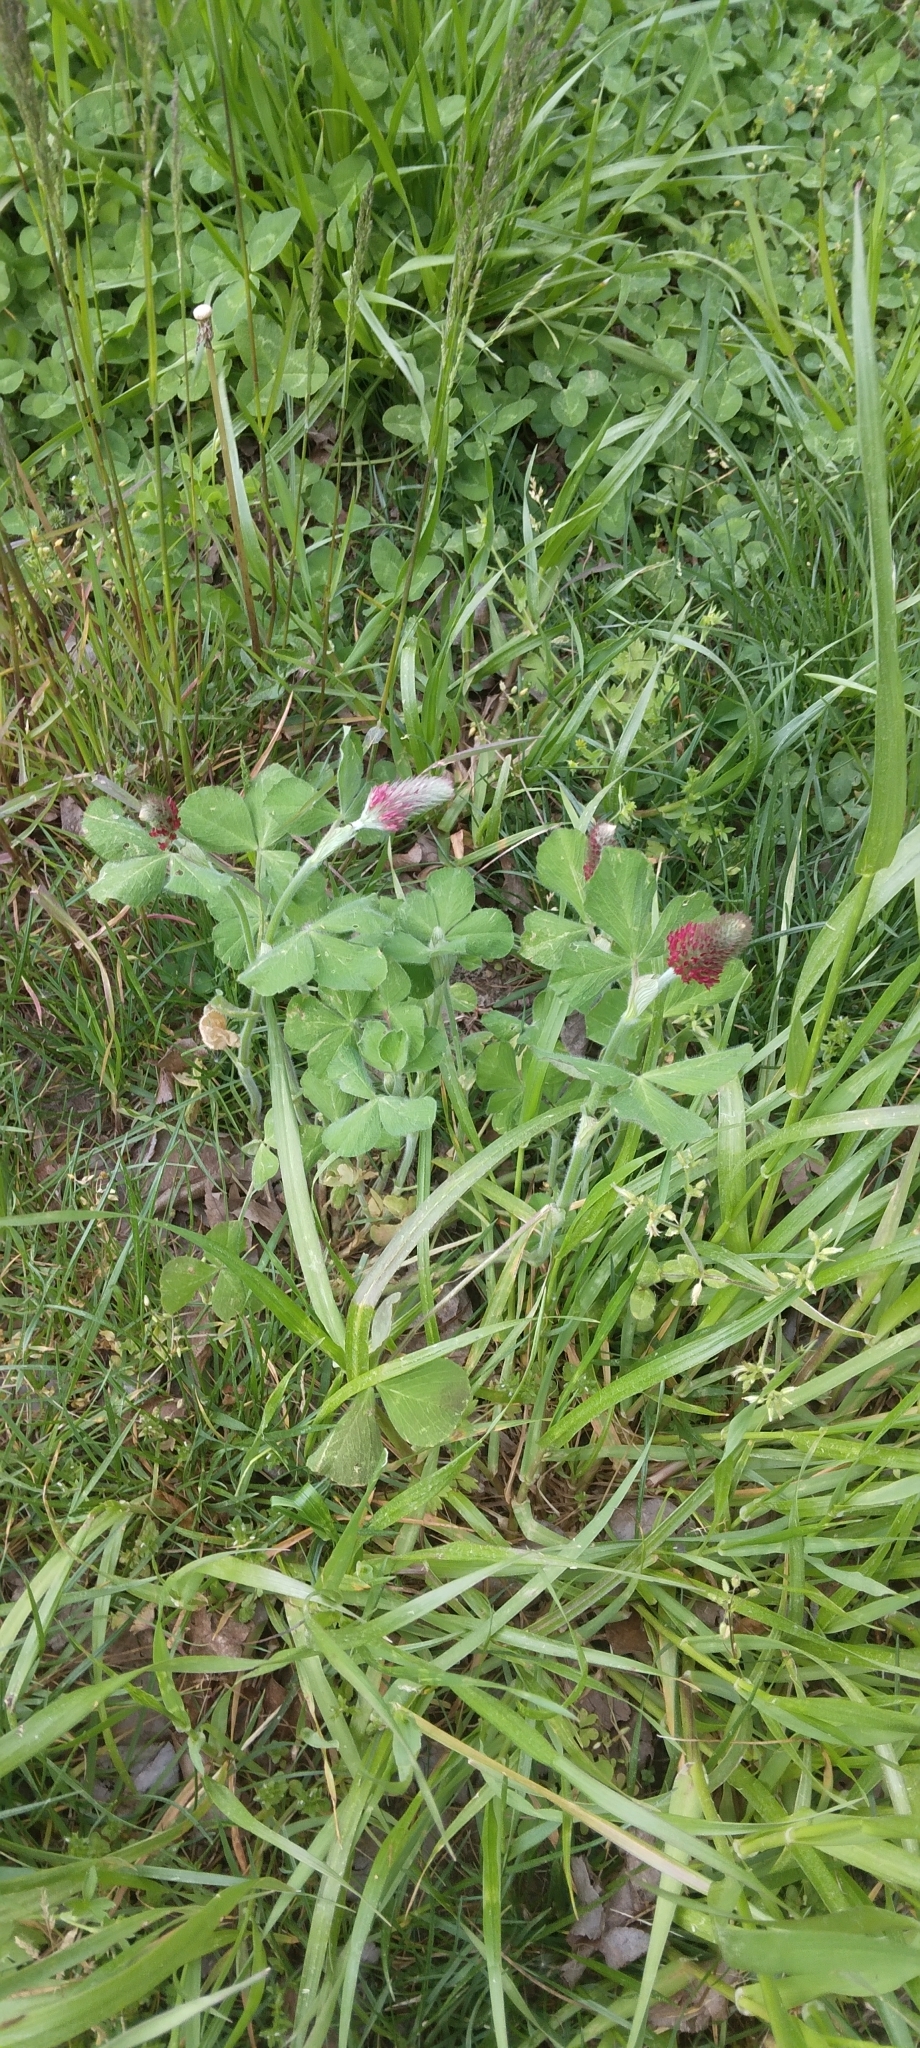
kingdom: Plantae
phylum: Tracheophyta
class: Magnoliopsida
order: Fabales
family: Fabaceae
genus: Trifolium
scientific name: Trifolium incarnatum
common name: Crimson clover
